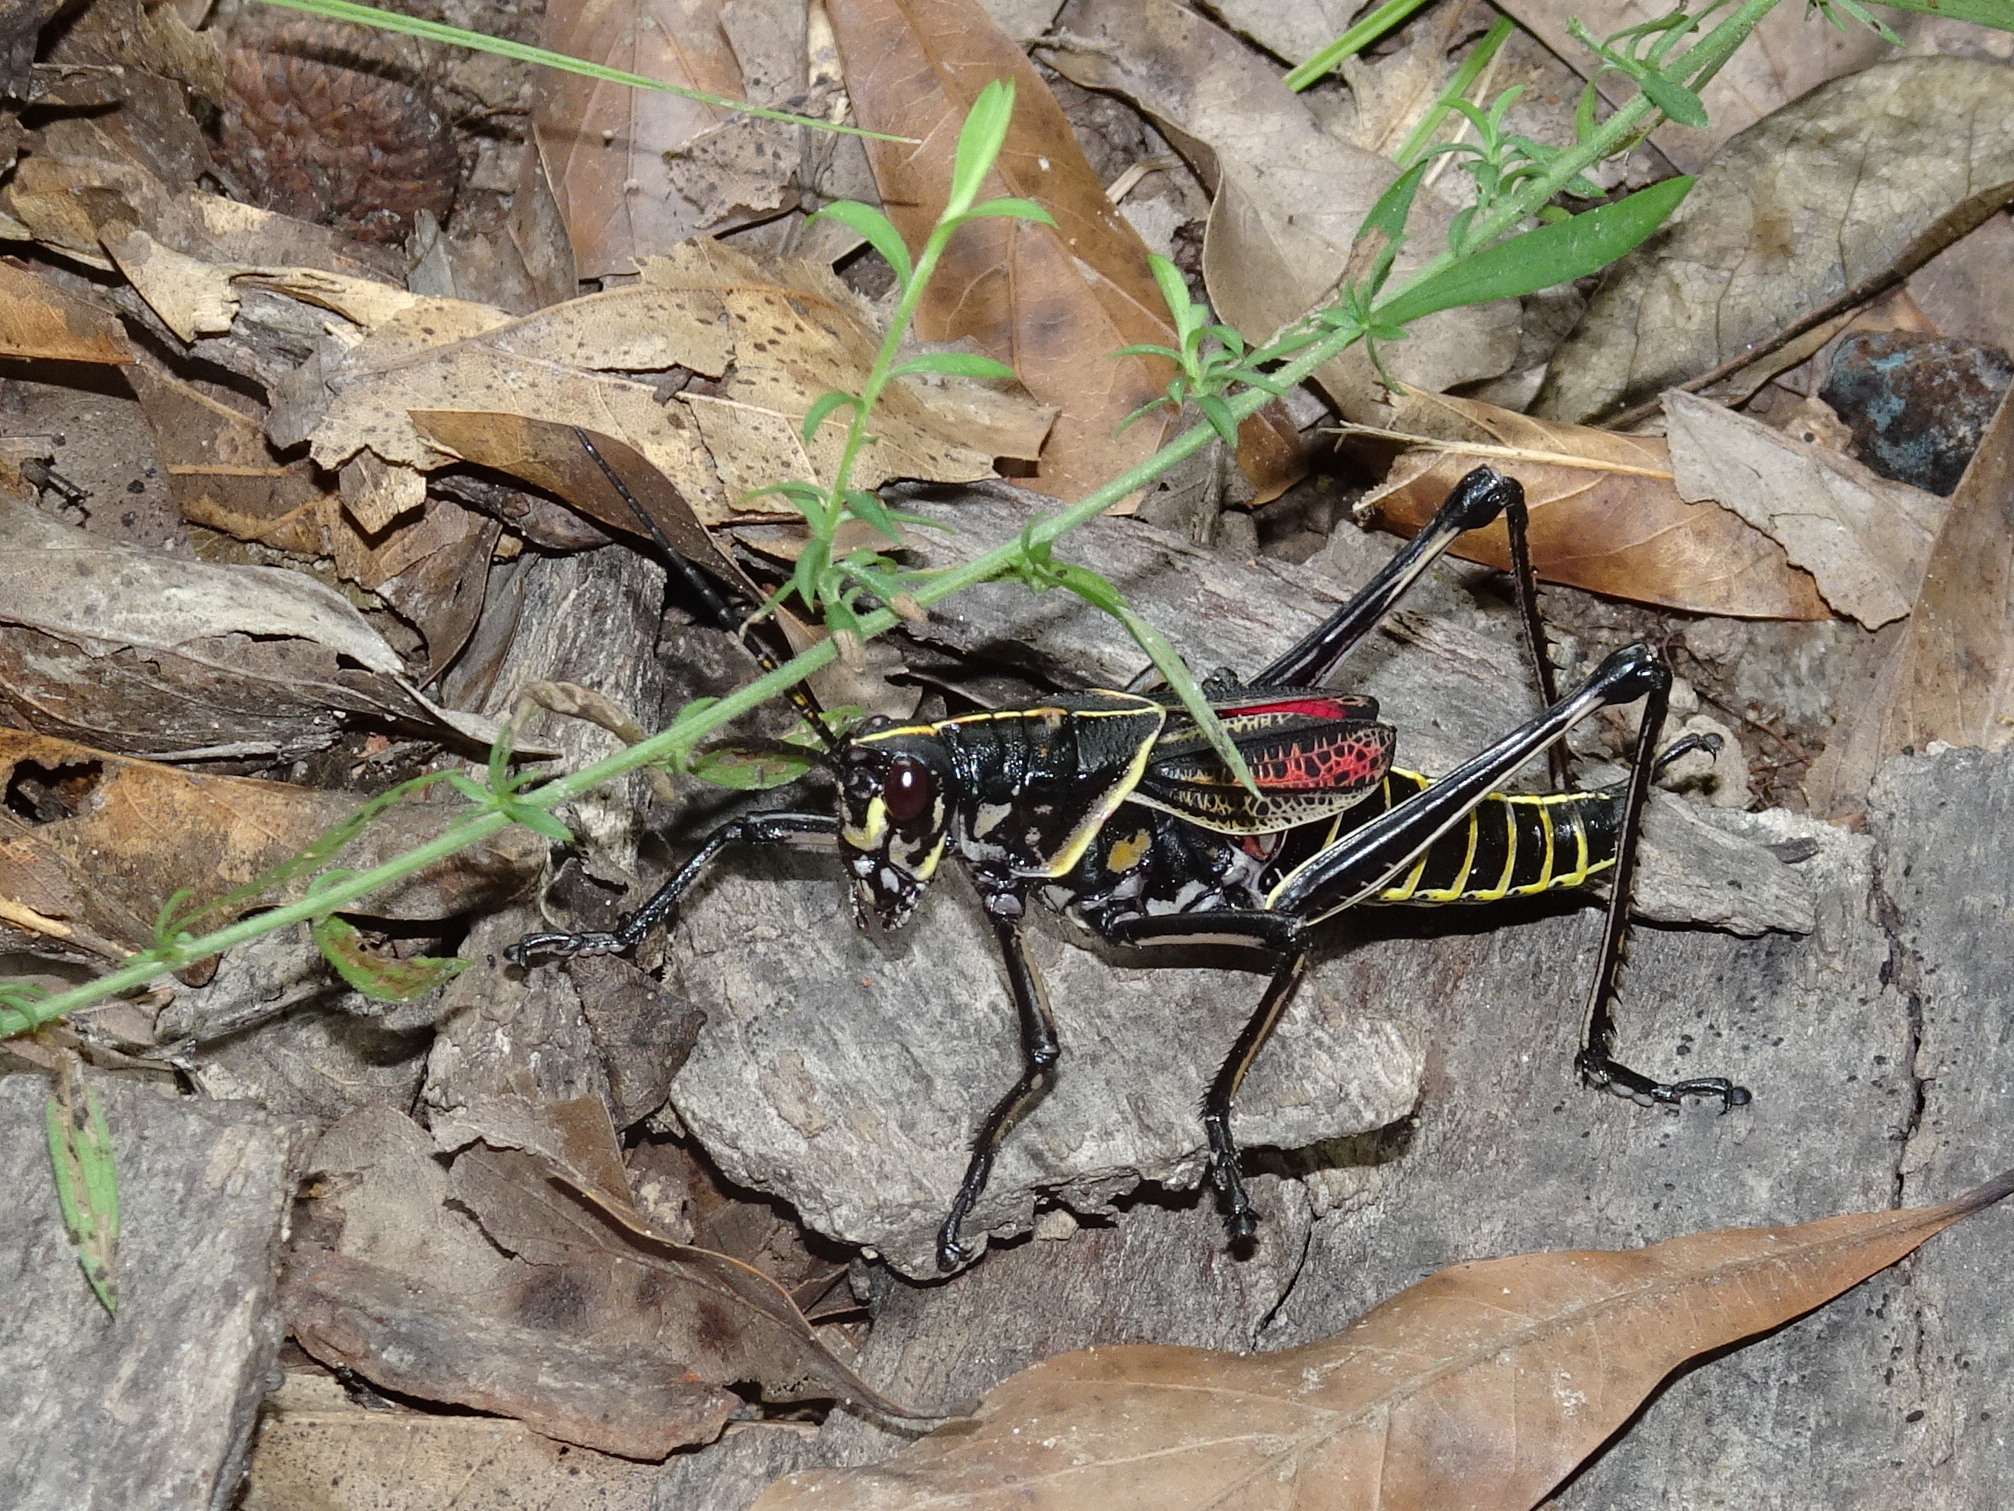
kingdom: Animalia
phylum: Arthropoda
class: Insecta
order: Orthoptera
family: Romaleidae
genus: Romalea
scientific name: Romalea microptera
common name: Eastern lubber grasshopper
